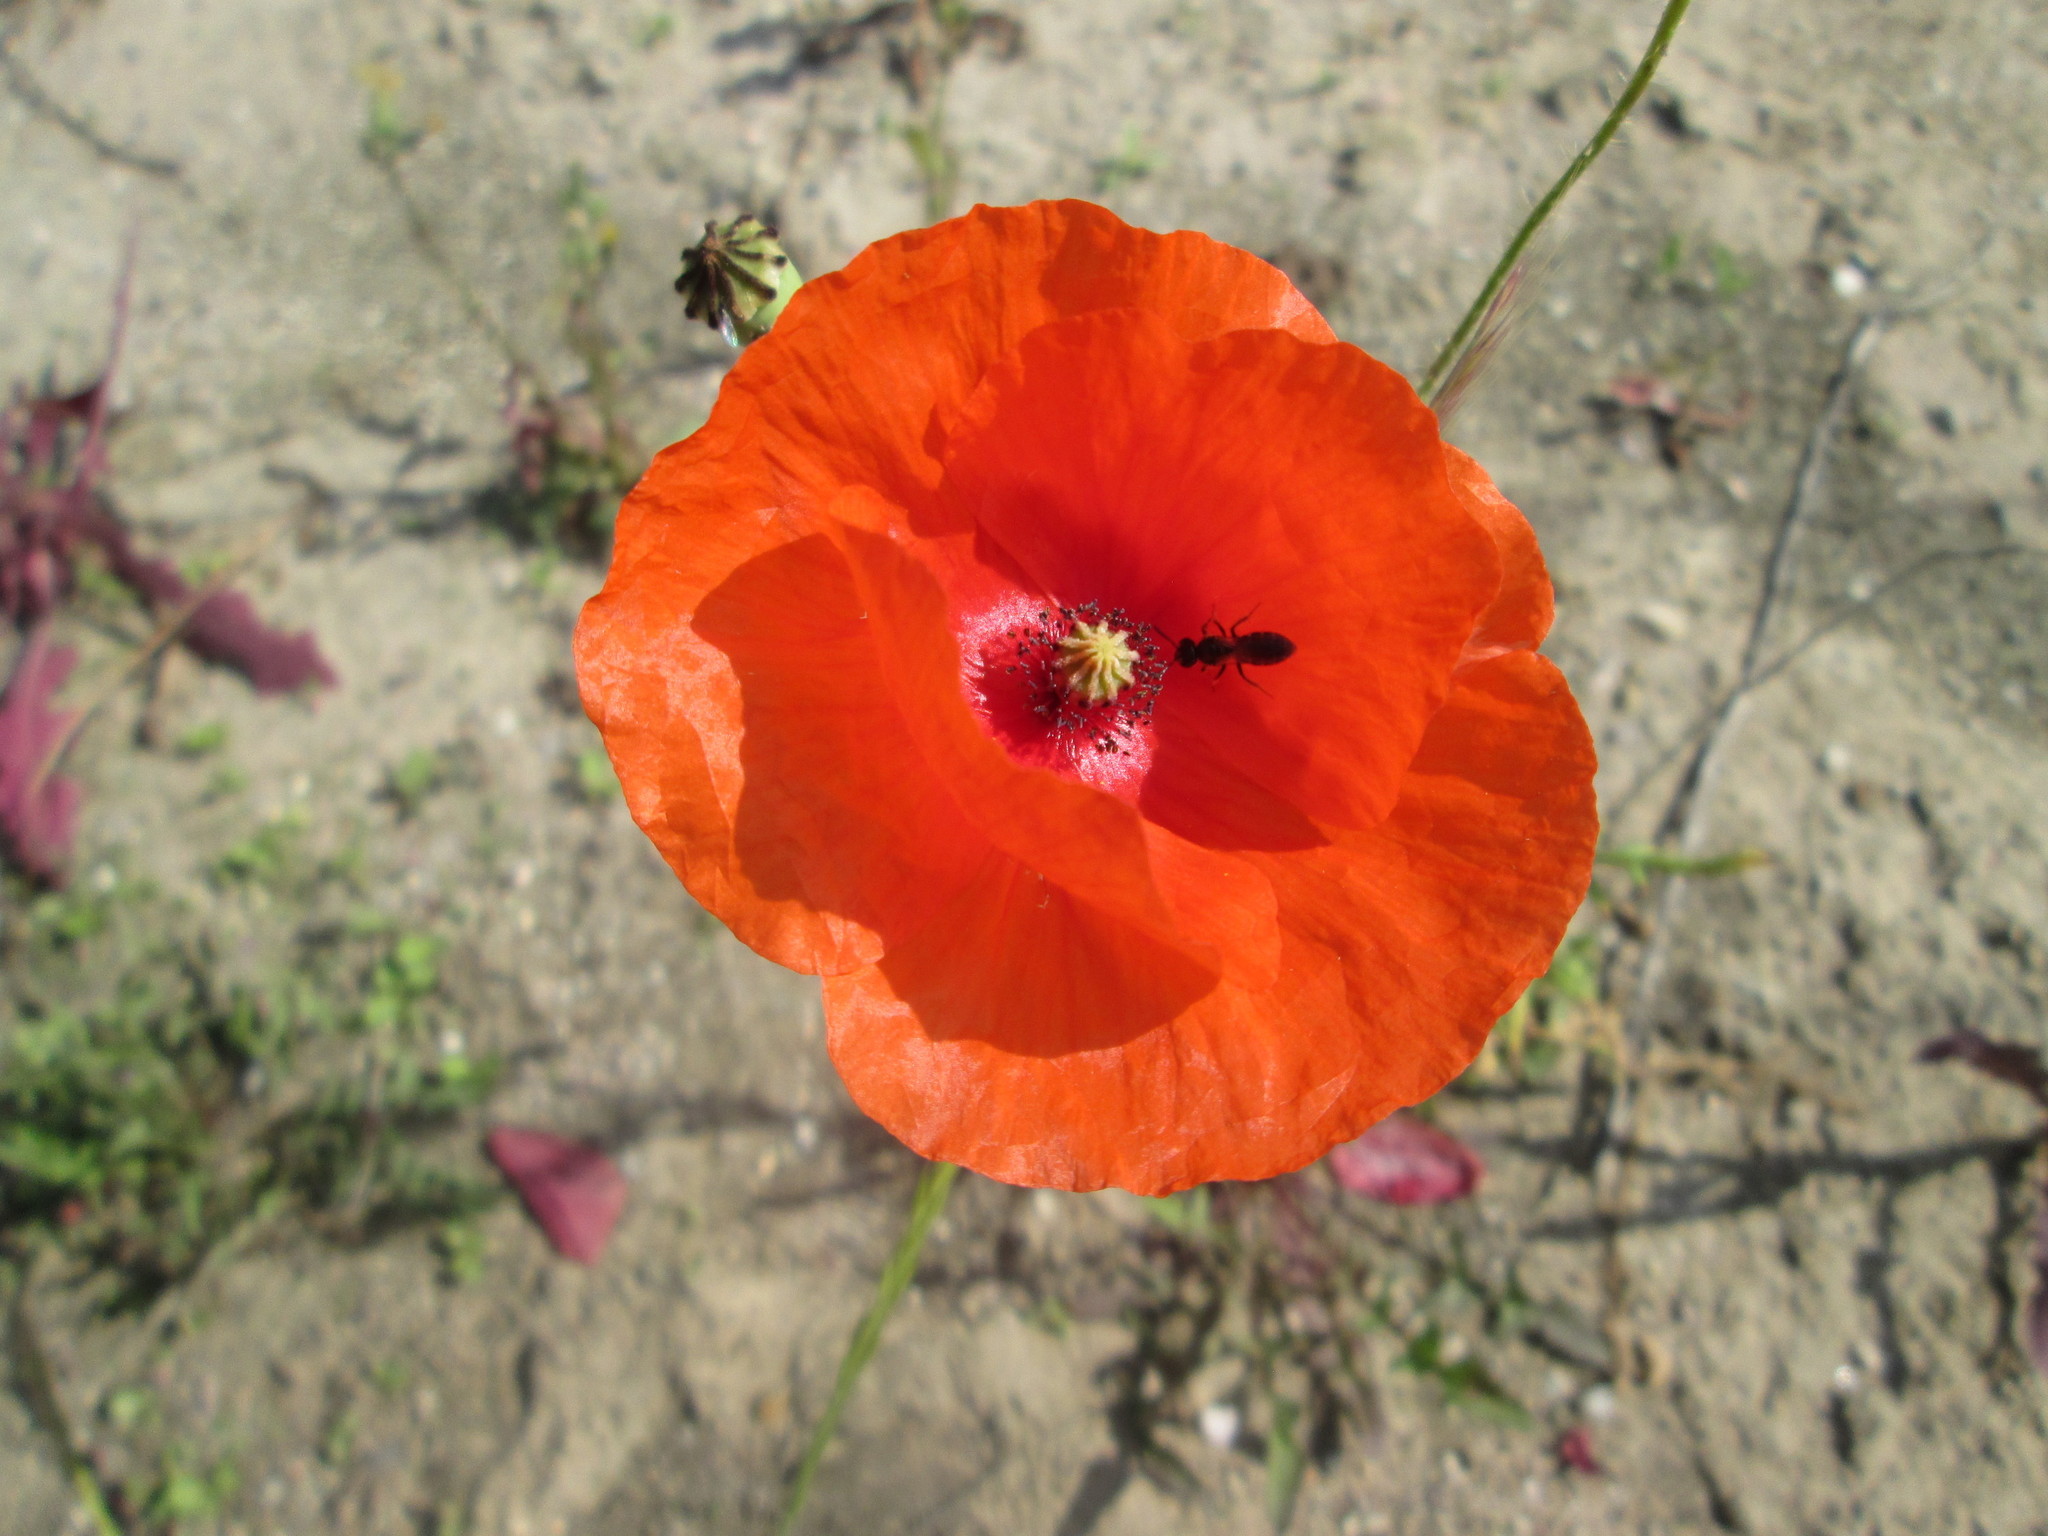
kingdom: Plantae
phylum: Tracheophyta
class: Magnoliopsida
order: Ranunculales
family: Papaveraceae
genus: Papaver
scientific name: Papaver rhoeas
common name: Corn poppy
